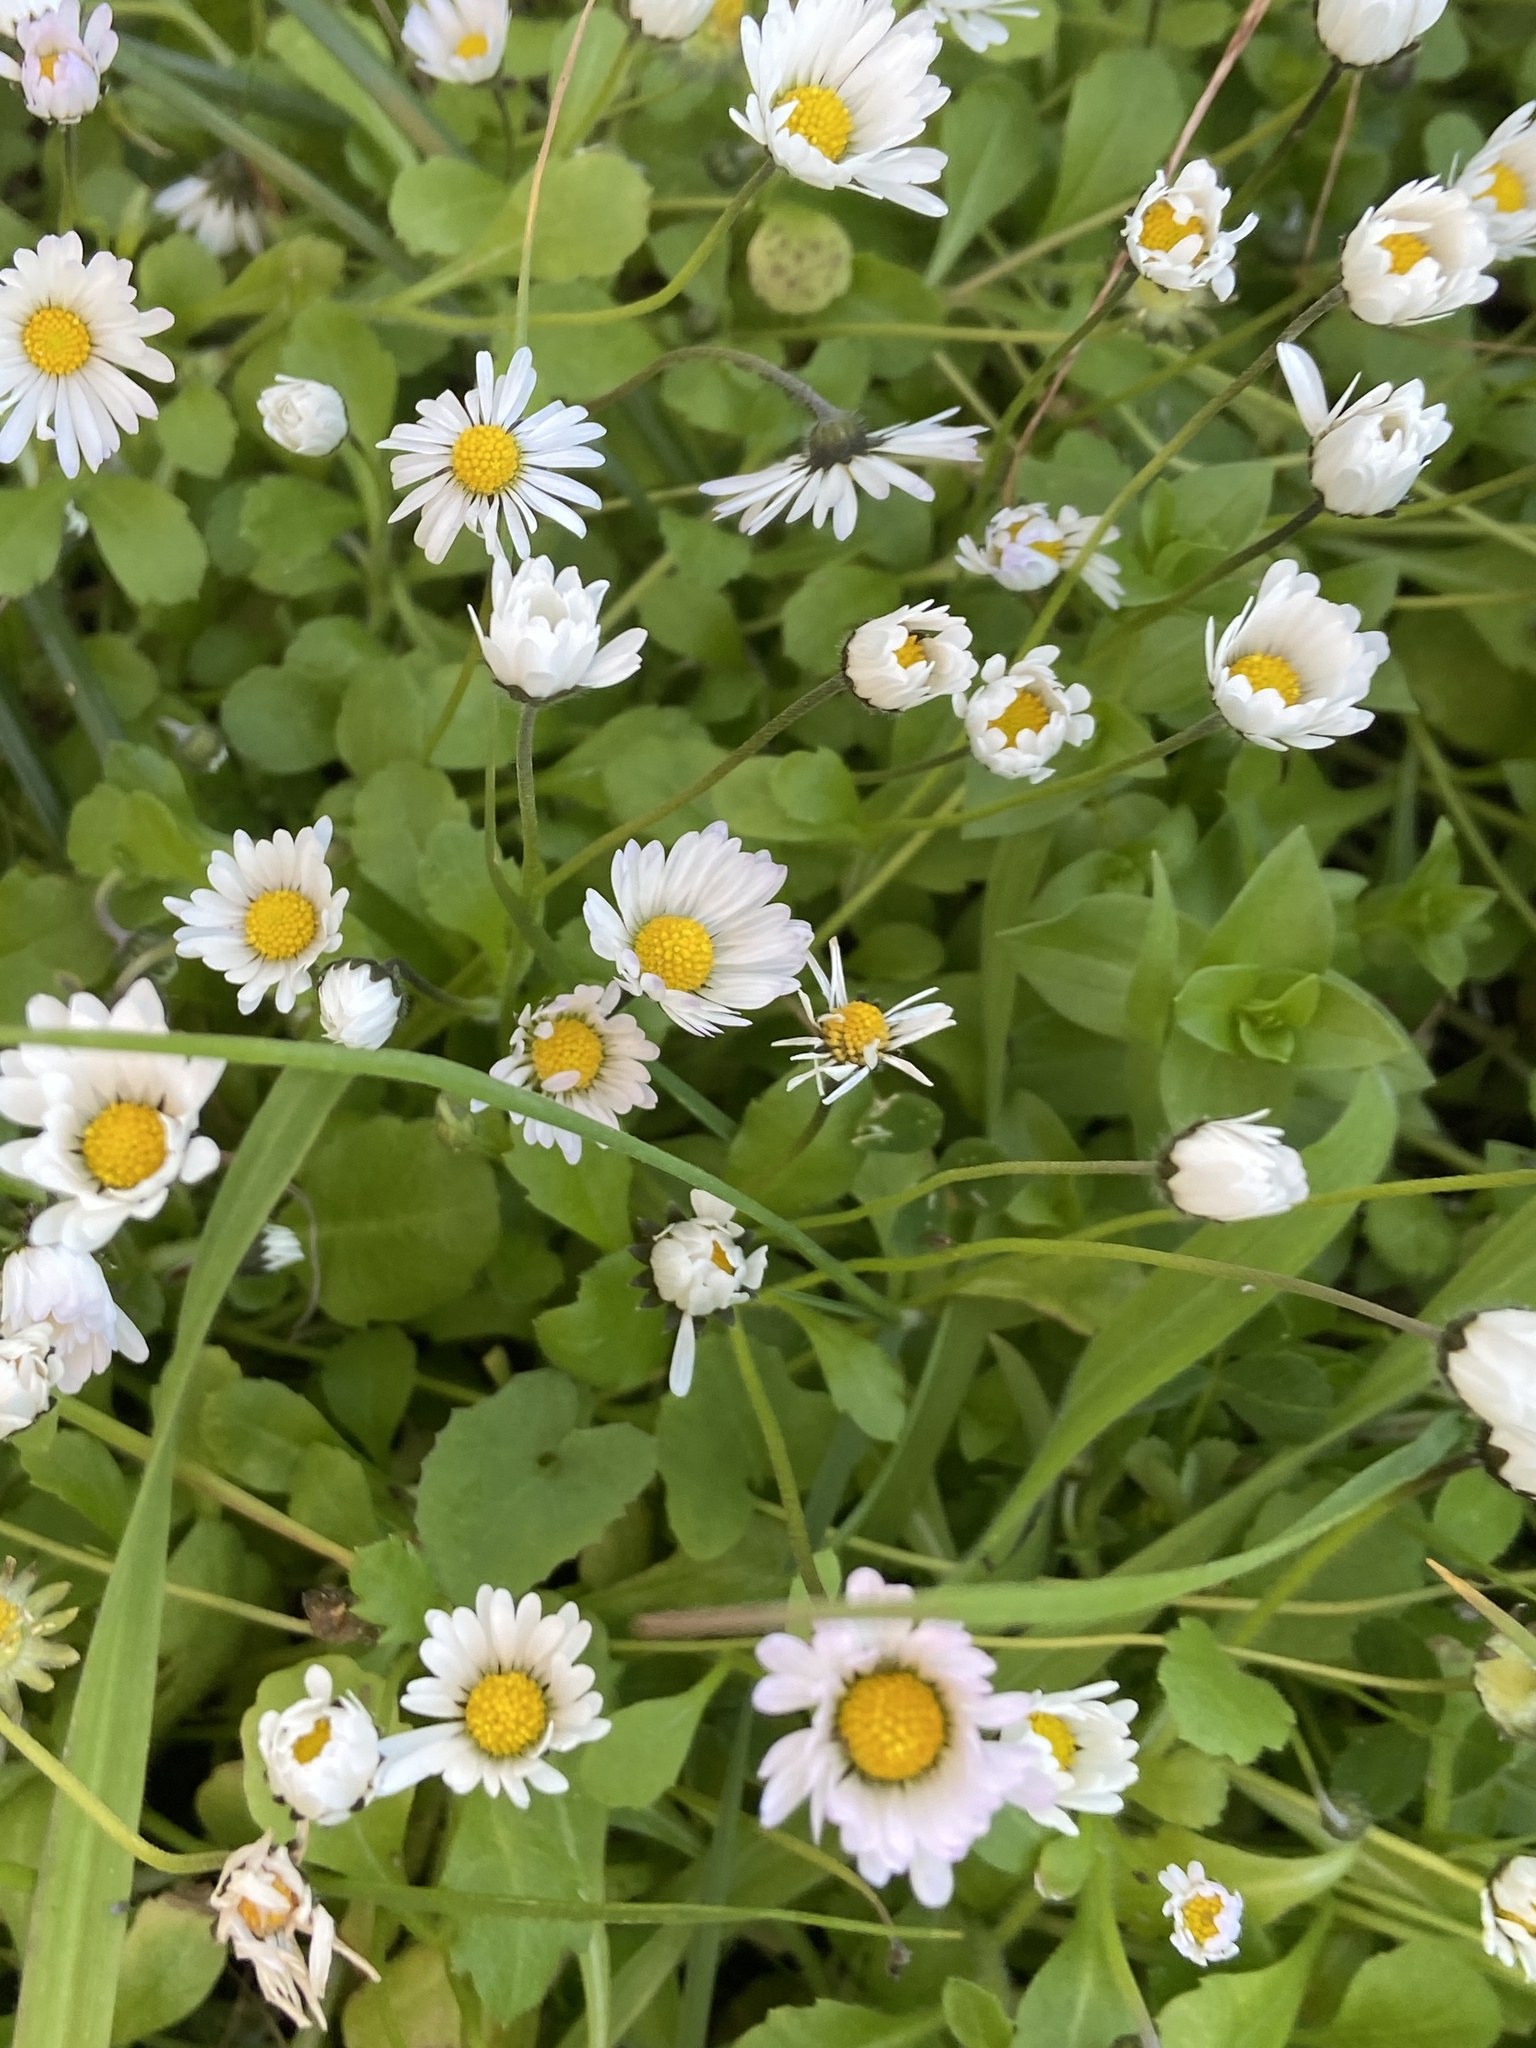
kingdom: Plantae
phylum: Tracheophyta
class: Magnoliopsida
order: Asterales
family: Asteraceae
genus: Bellis
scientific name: Bellis annua
